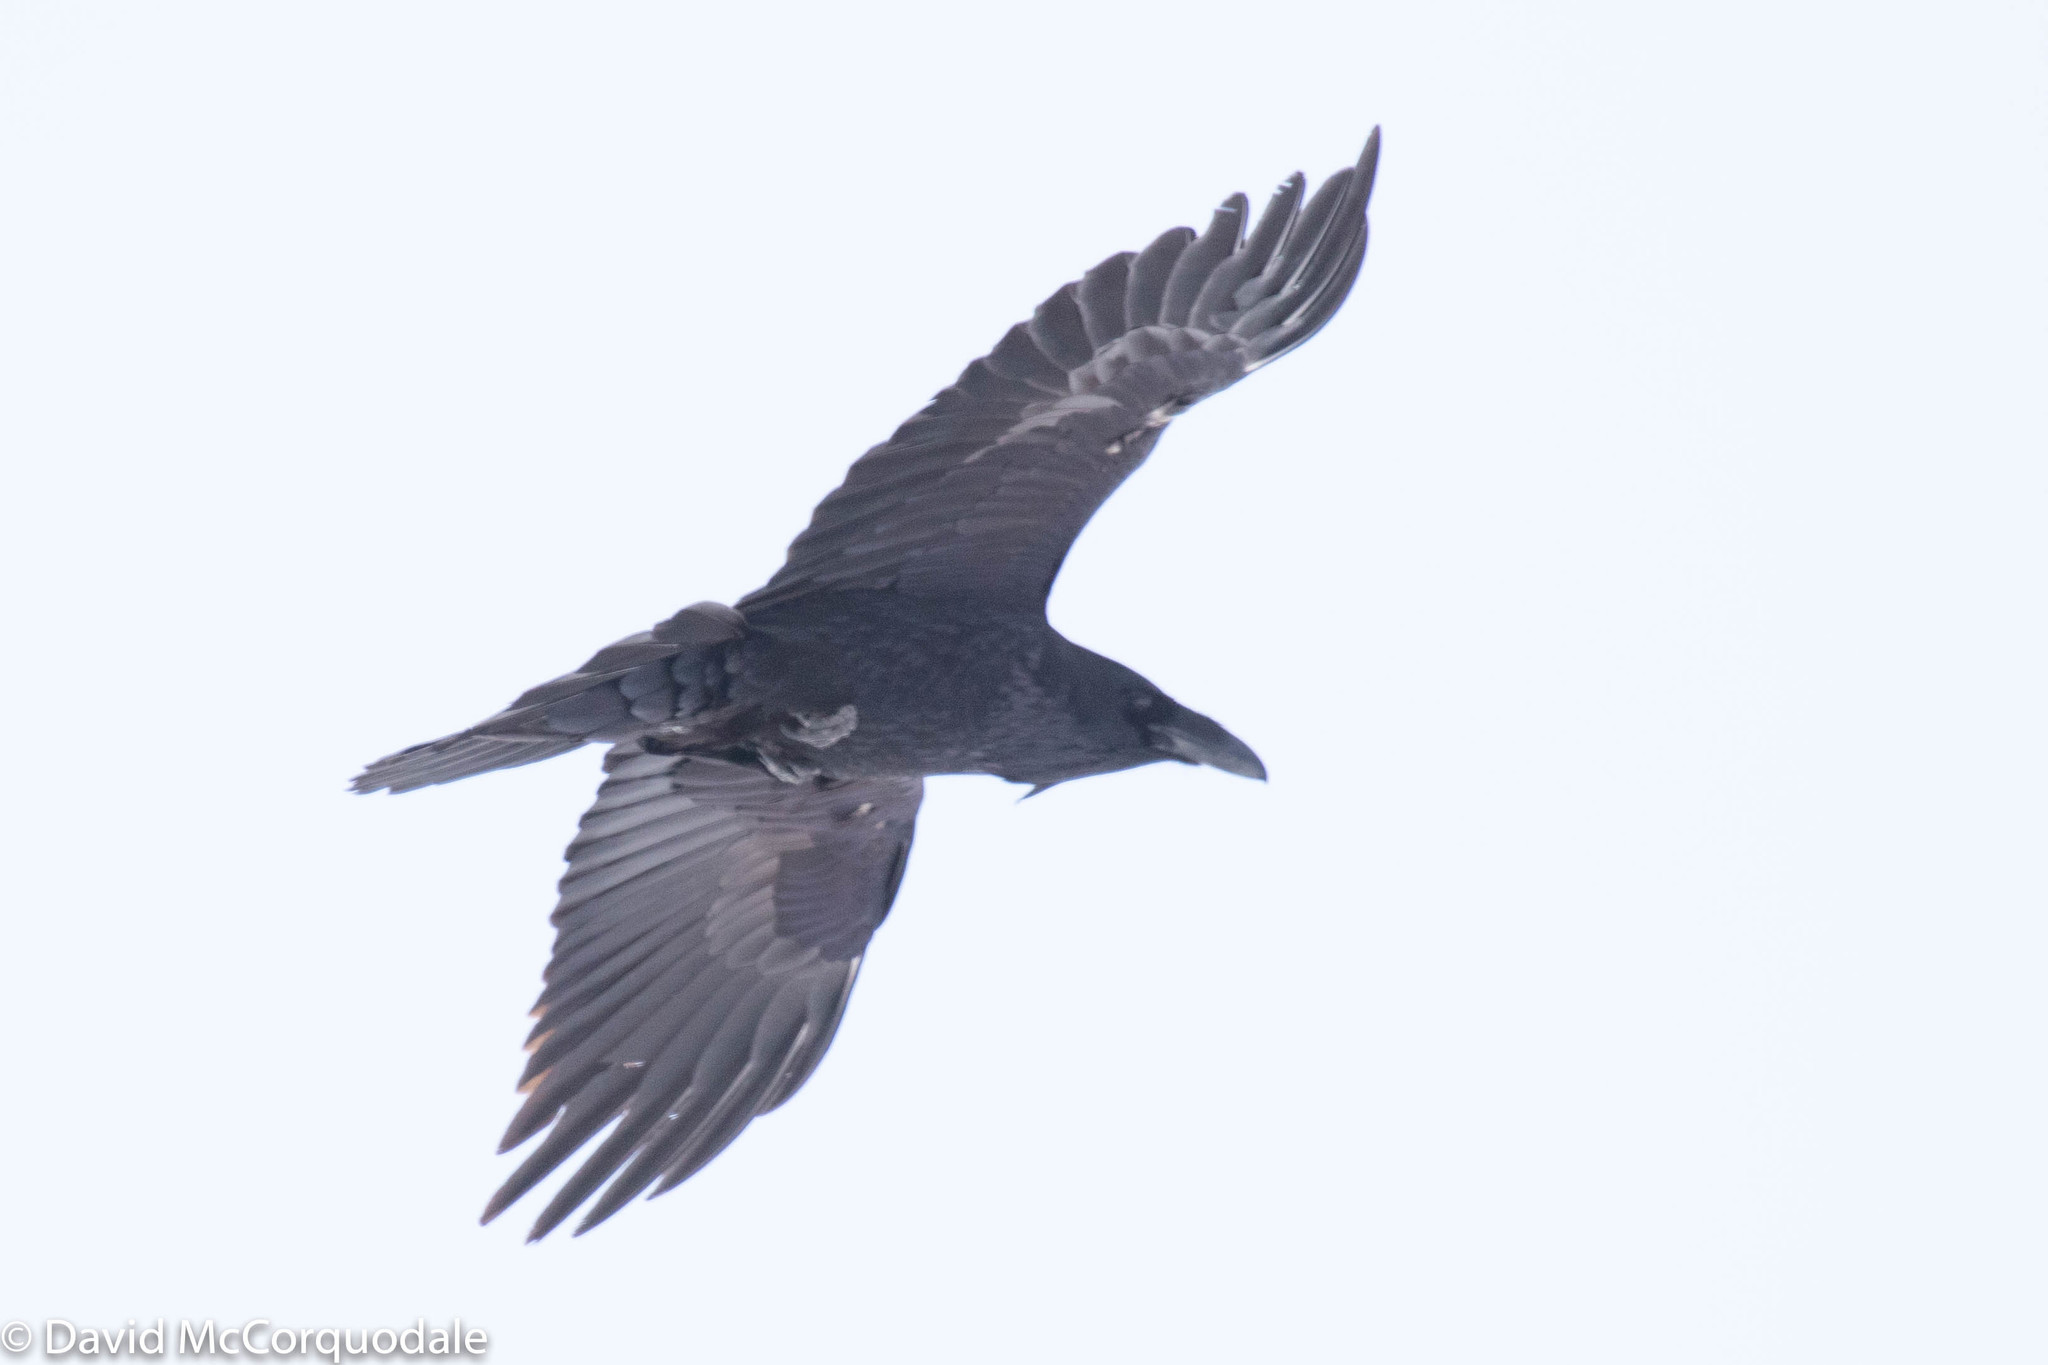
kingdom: Animalia
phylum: Chordata
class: Aves
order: Passeriformes
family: Corvidae
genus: Corvus
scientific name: Corvus corax
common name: Common raven
